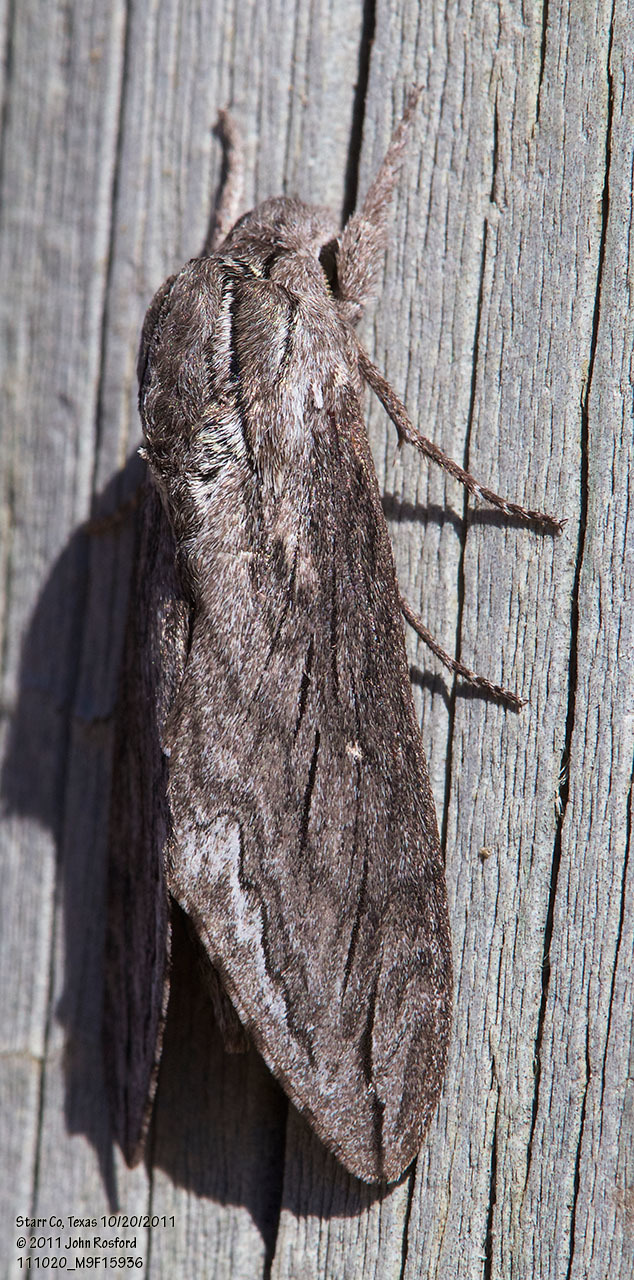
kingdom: Animalia
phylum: Arthropoda
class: Insecta
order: Lepidoptera
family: Sphingidae
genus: Sphinx
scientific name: Sphinx libocedrus
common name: Incense cedar sphinx
